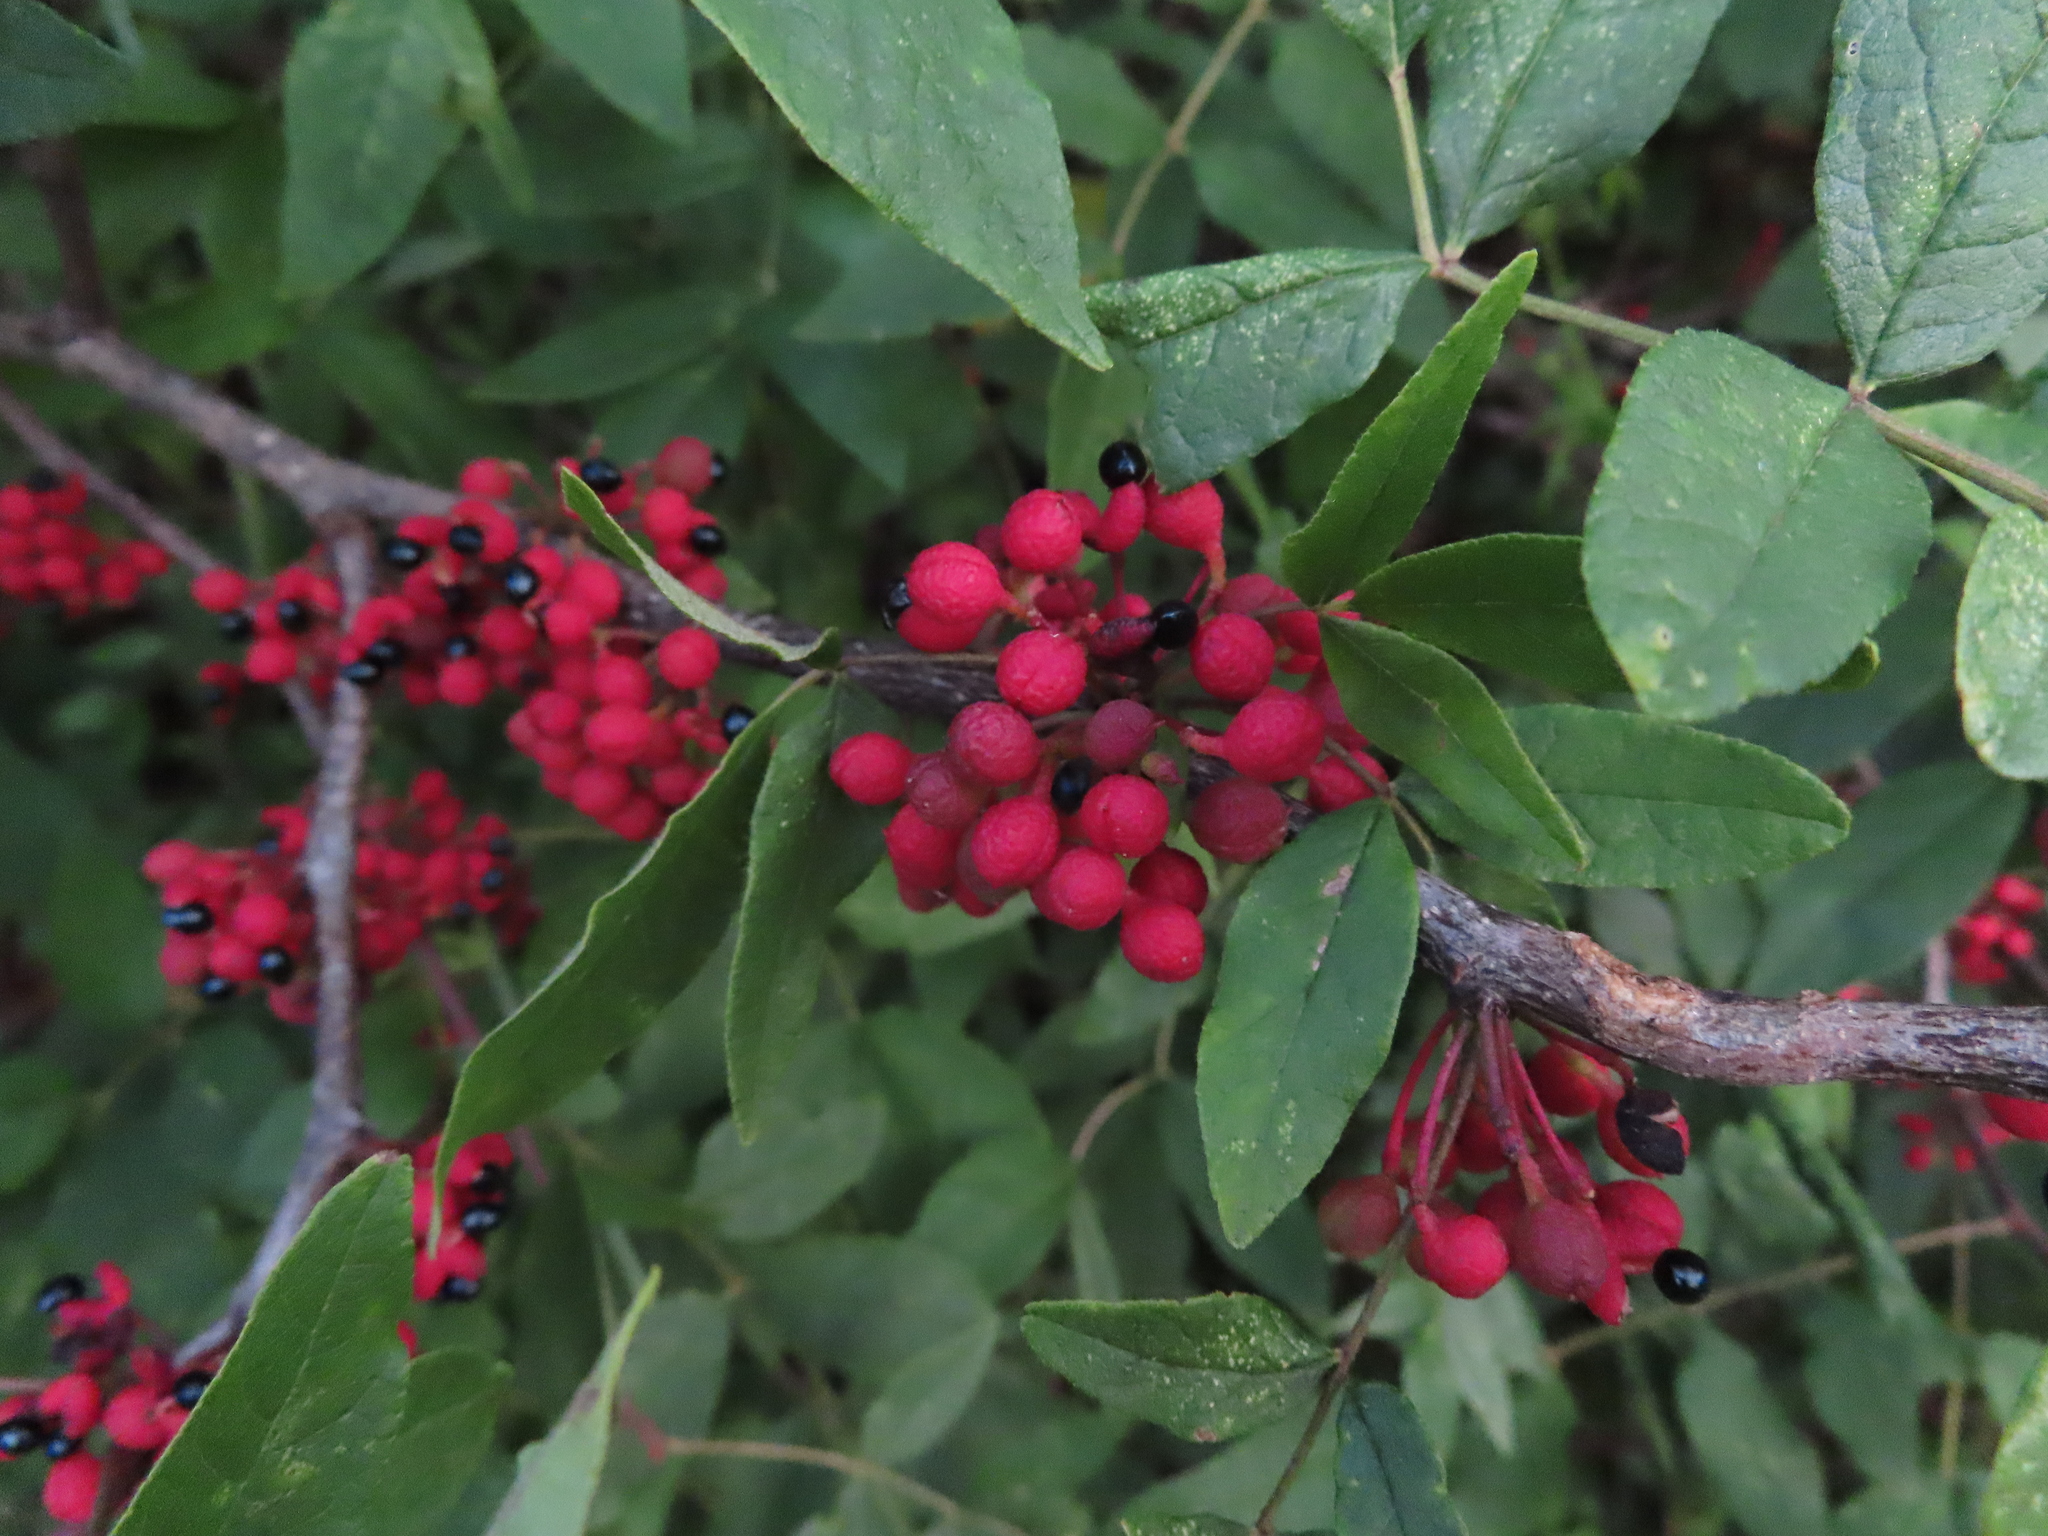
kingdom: Plantae
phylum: Tracheophyta
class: Magnoliopsida
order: Sapindales
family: Rutaceae
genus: Zanthoxylum
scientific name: Zanthoxylum americanum
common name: Northern prickly-ash
